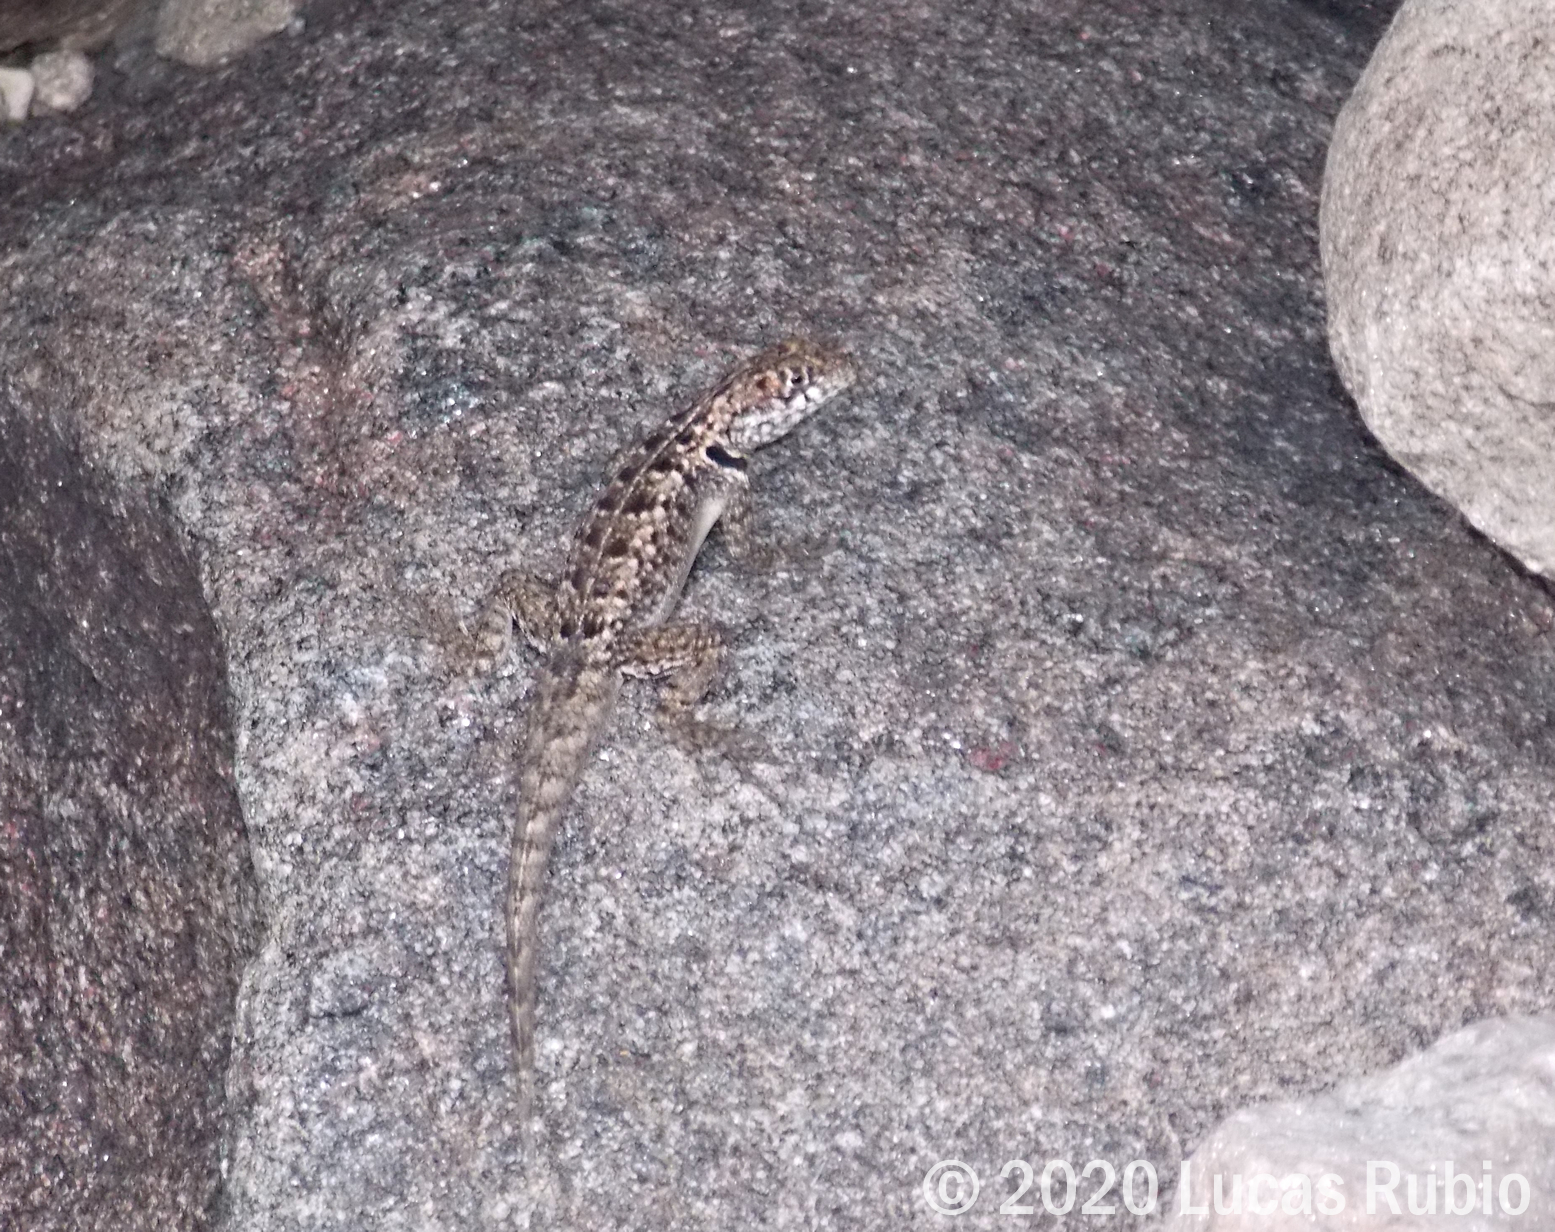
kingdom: Animalia
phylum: Chordata
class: Squamata
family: Tropiduridae
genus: Tropidurus
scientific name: Tropidurus etheridgei
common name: Etheridge's lava lizard
